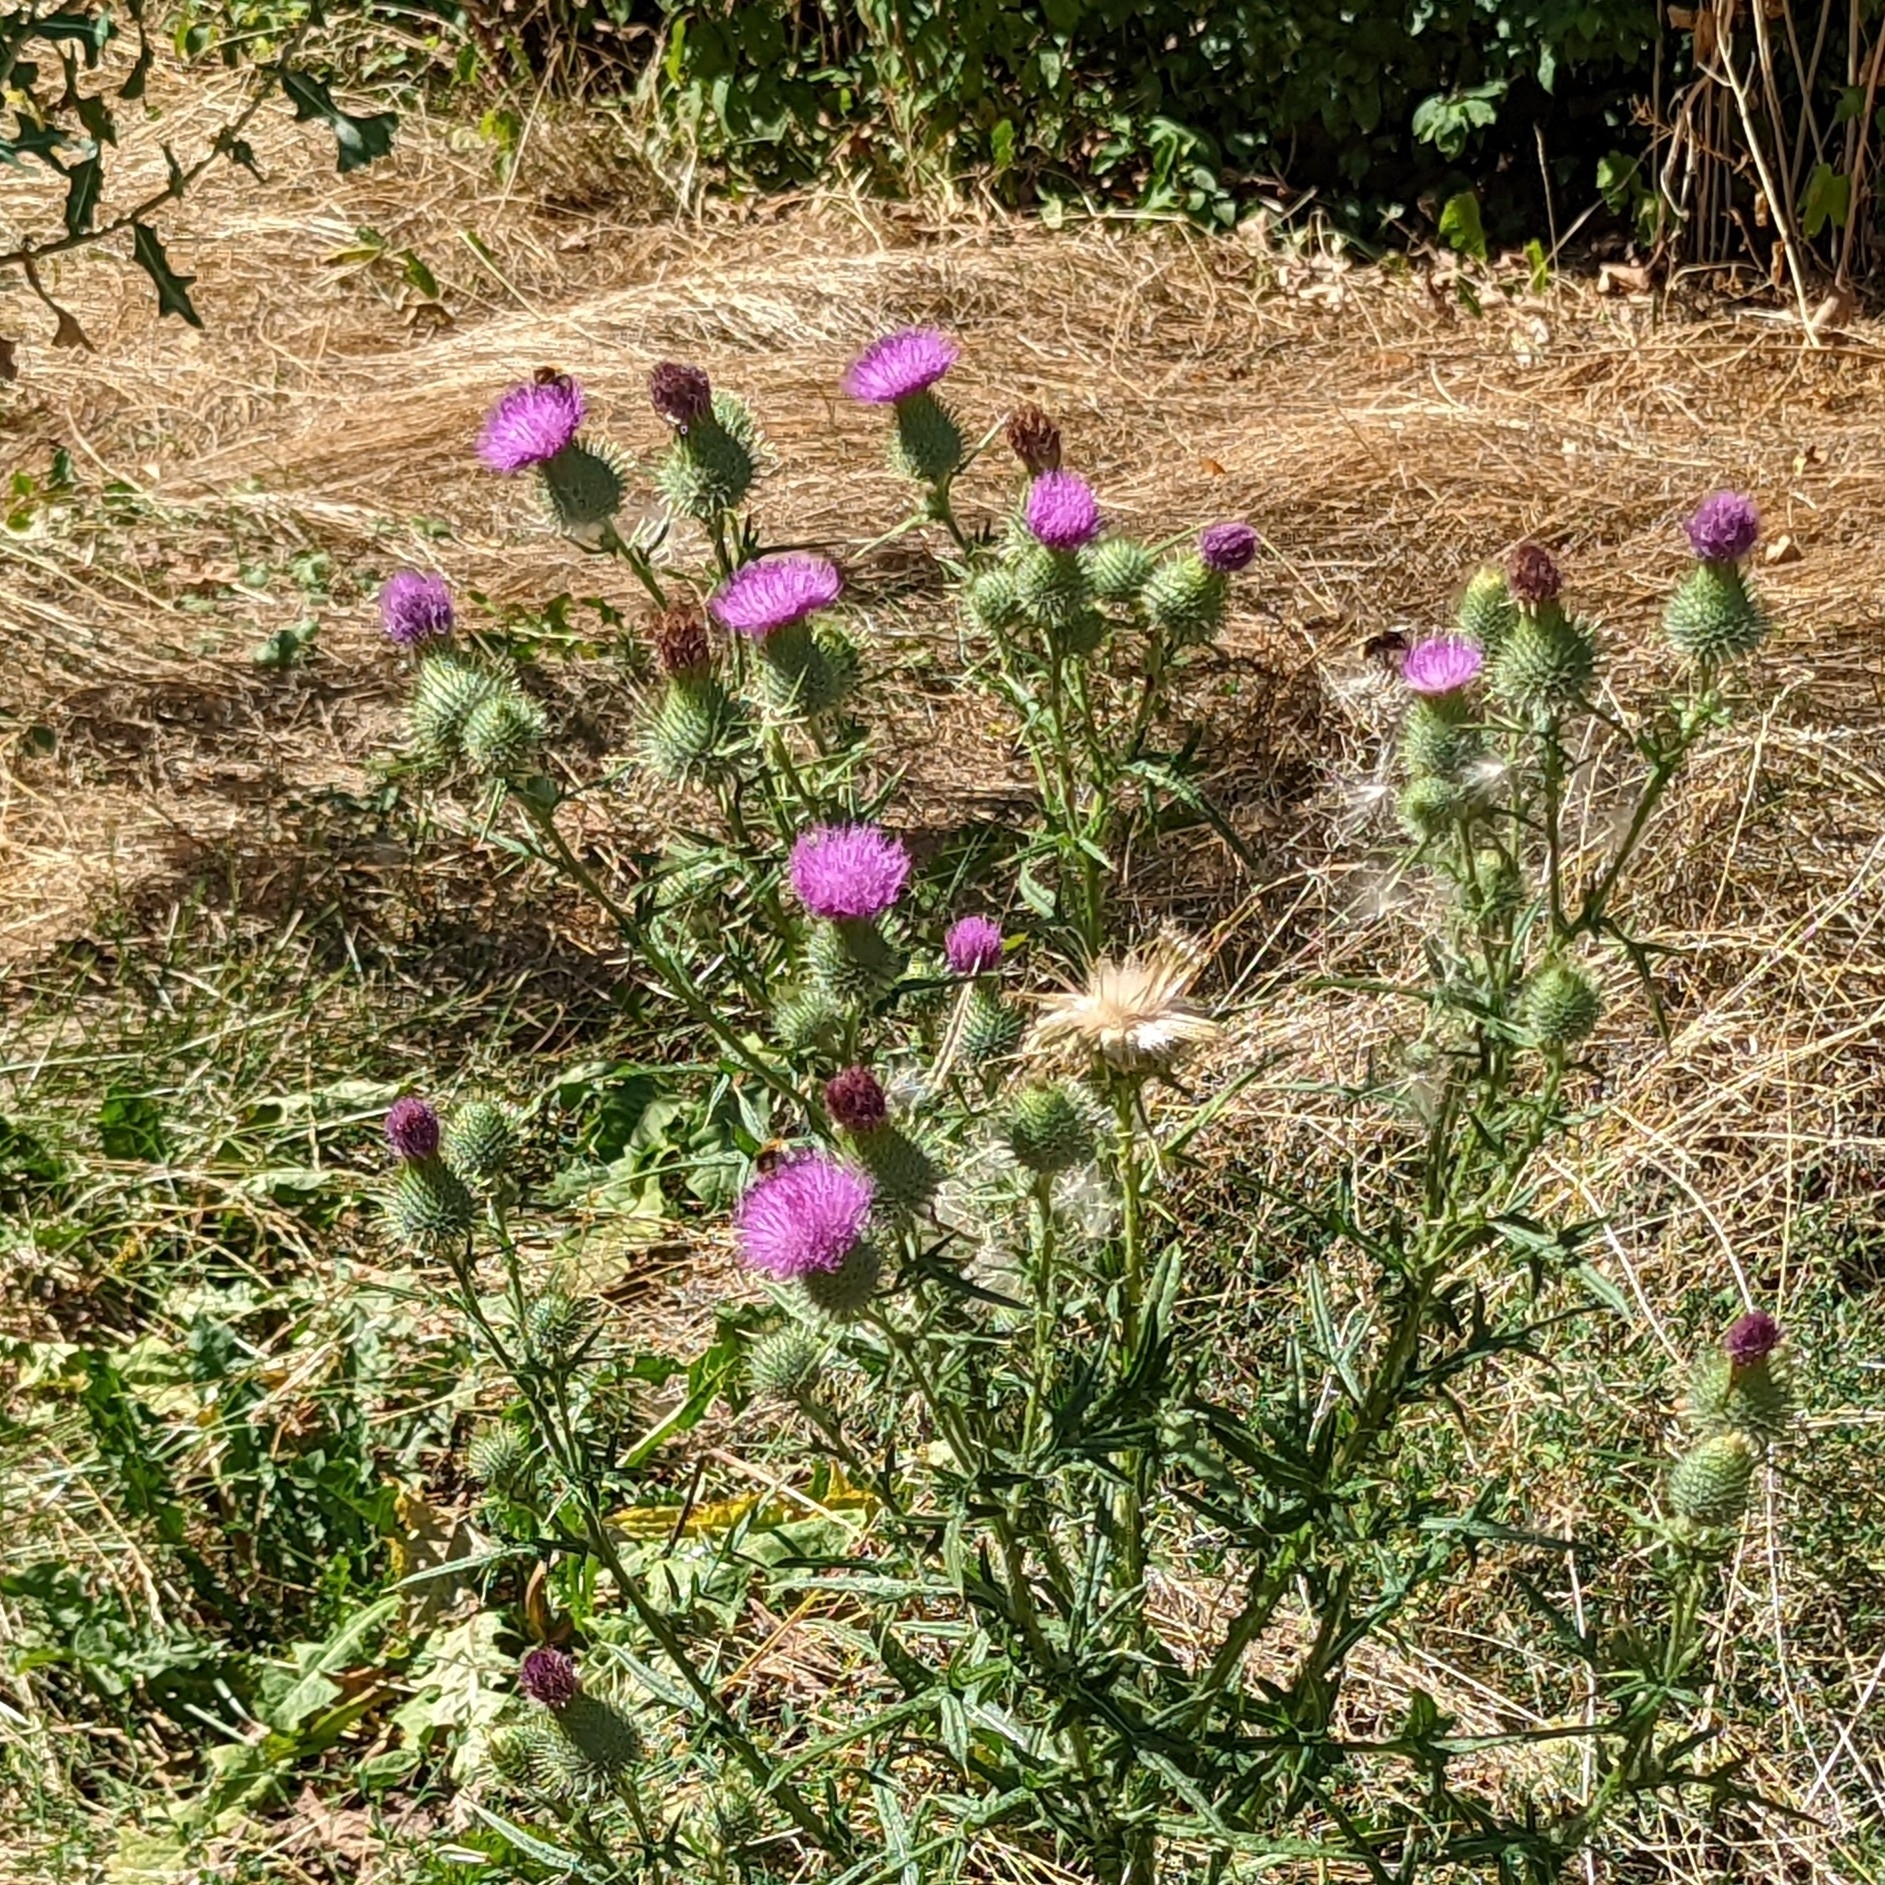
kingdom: Plantae
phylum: Tracheophyta
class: Magnoliopsida
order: Asterales
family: Asteraceae
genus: Cirsium
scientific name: Cirsium vulgare
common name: Bull thistle
